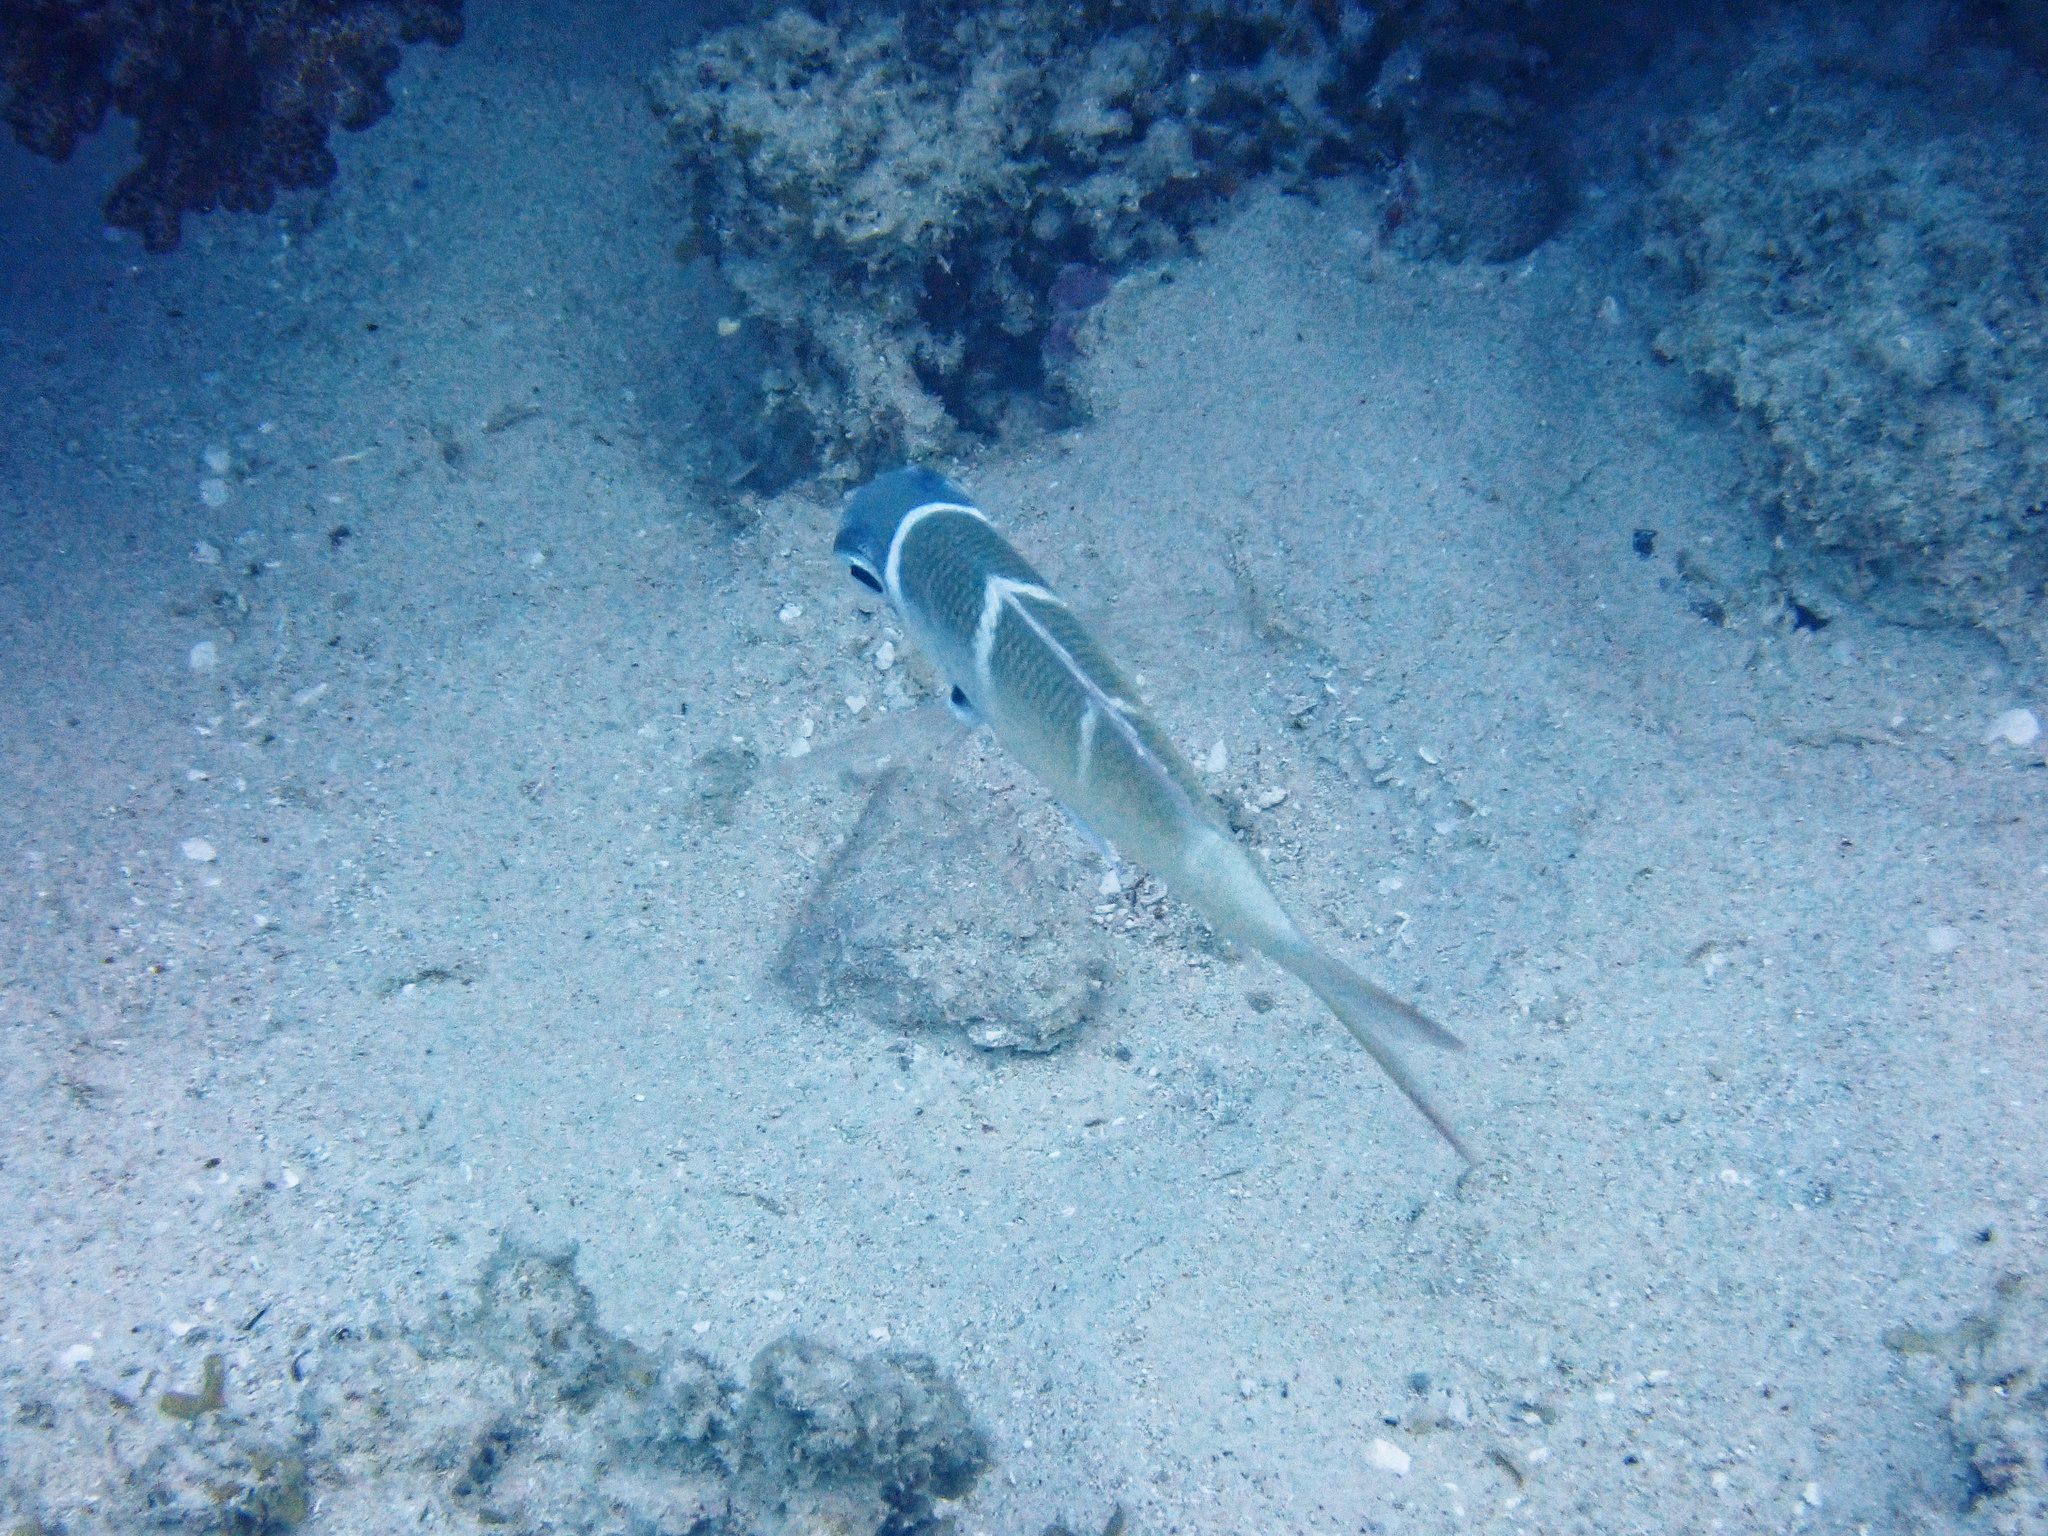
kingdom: Animalia
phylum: Chordata
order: Perciformes
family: Lethrinidae
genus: Monotaxis
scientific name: Monotaxis heterodon
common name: Redfin emperor
